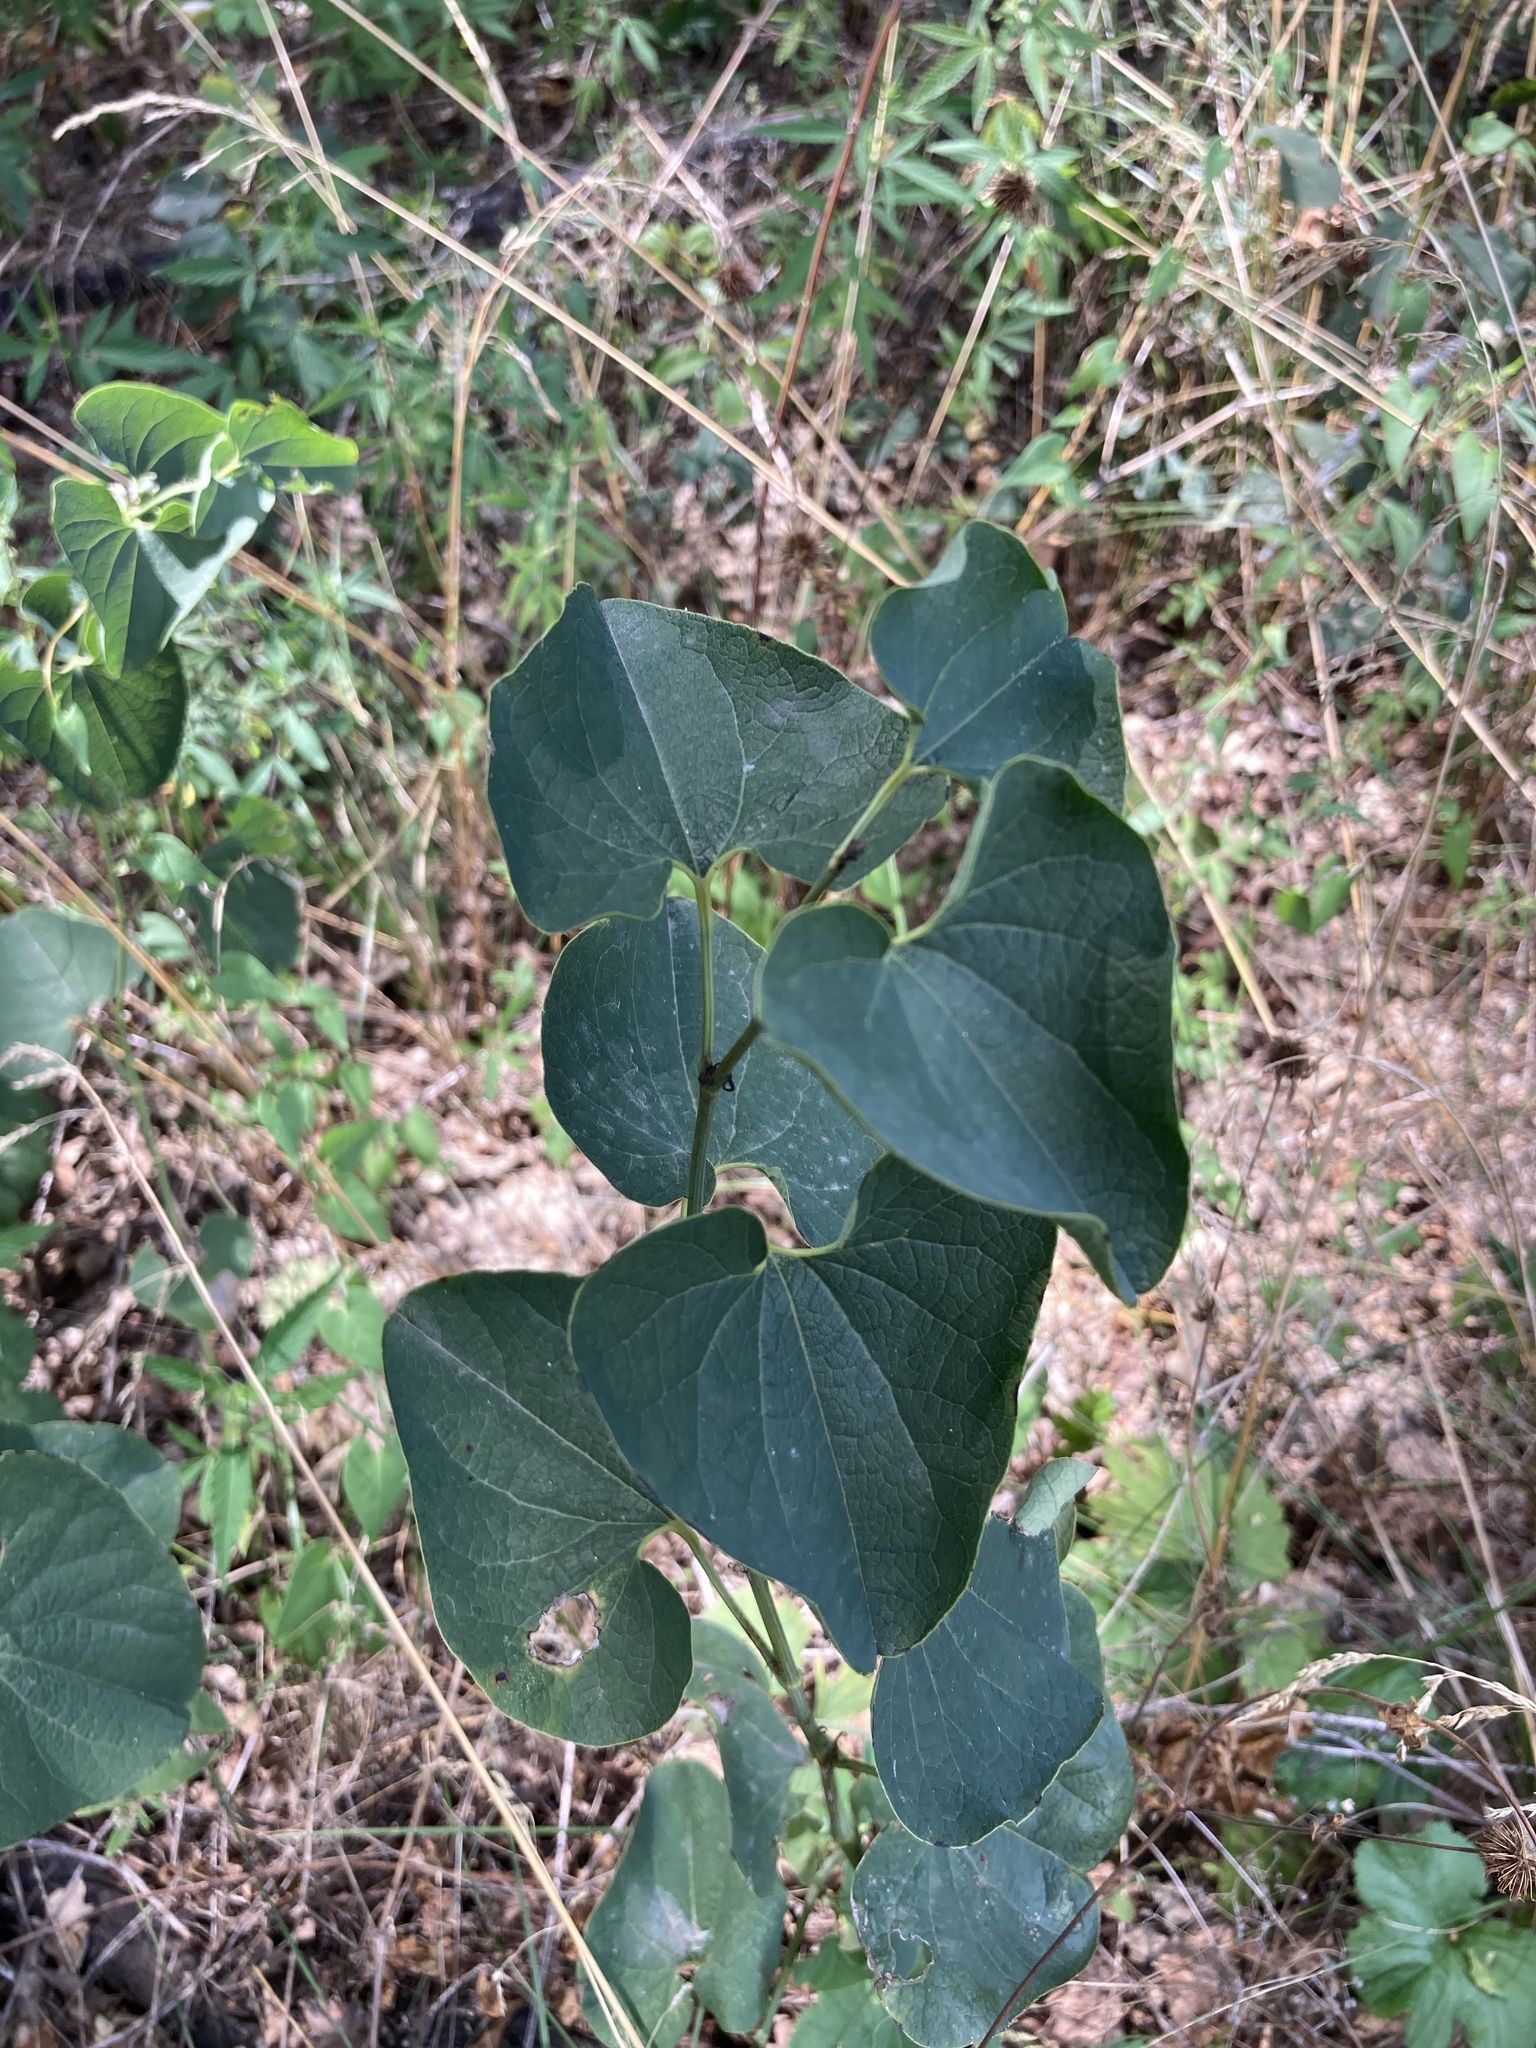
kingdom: Plantae
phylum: Tracheophyta
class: Magnoliopsida
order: Piperales
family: Aristolochiaceae
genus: Aristolochia
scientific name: Aristolochia clematitis
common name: Birthwort
